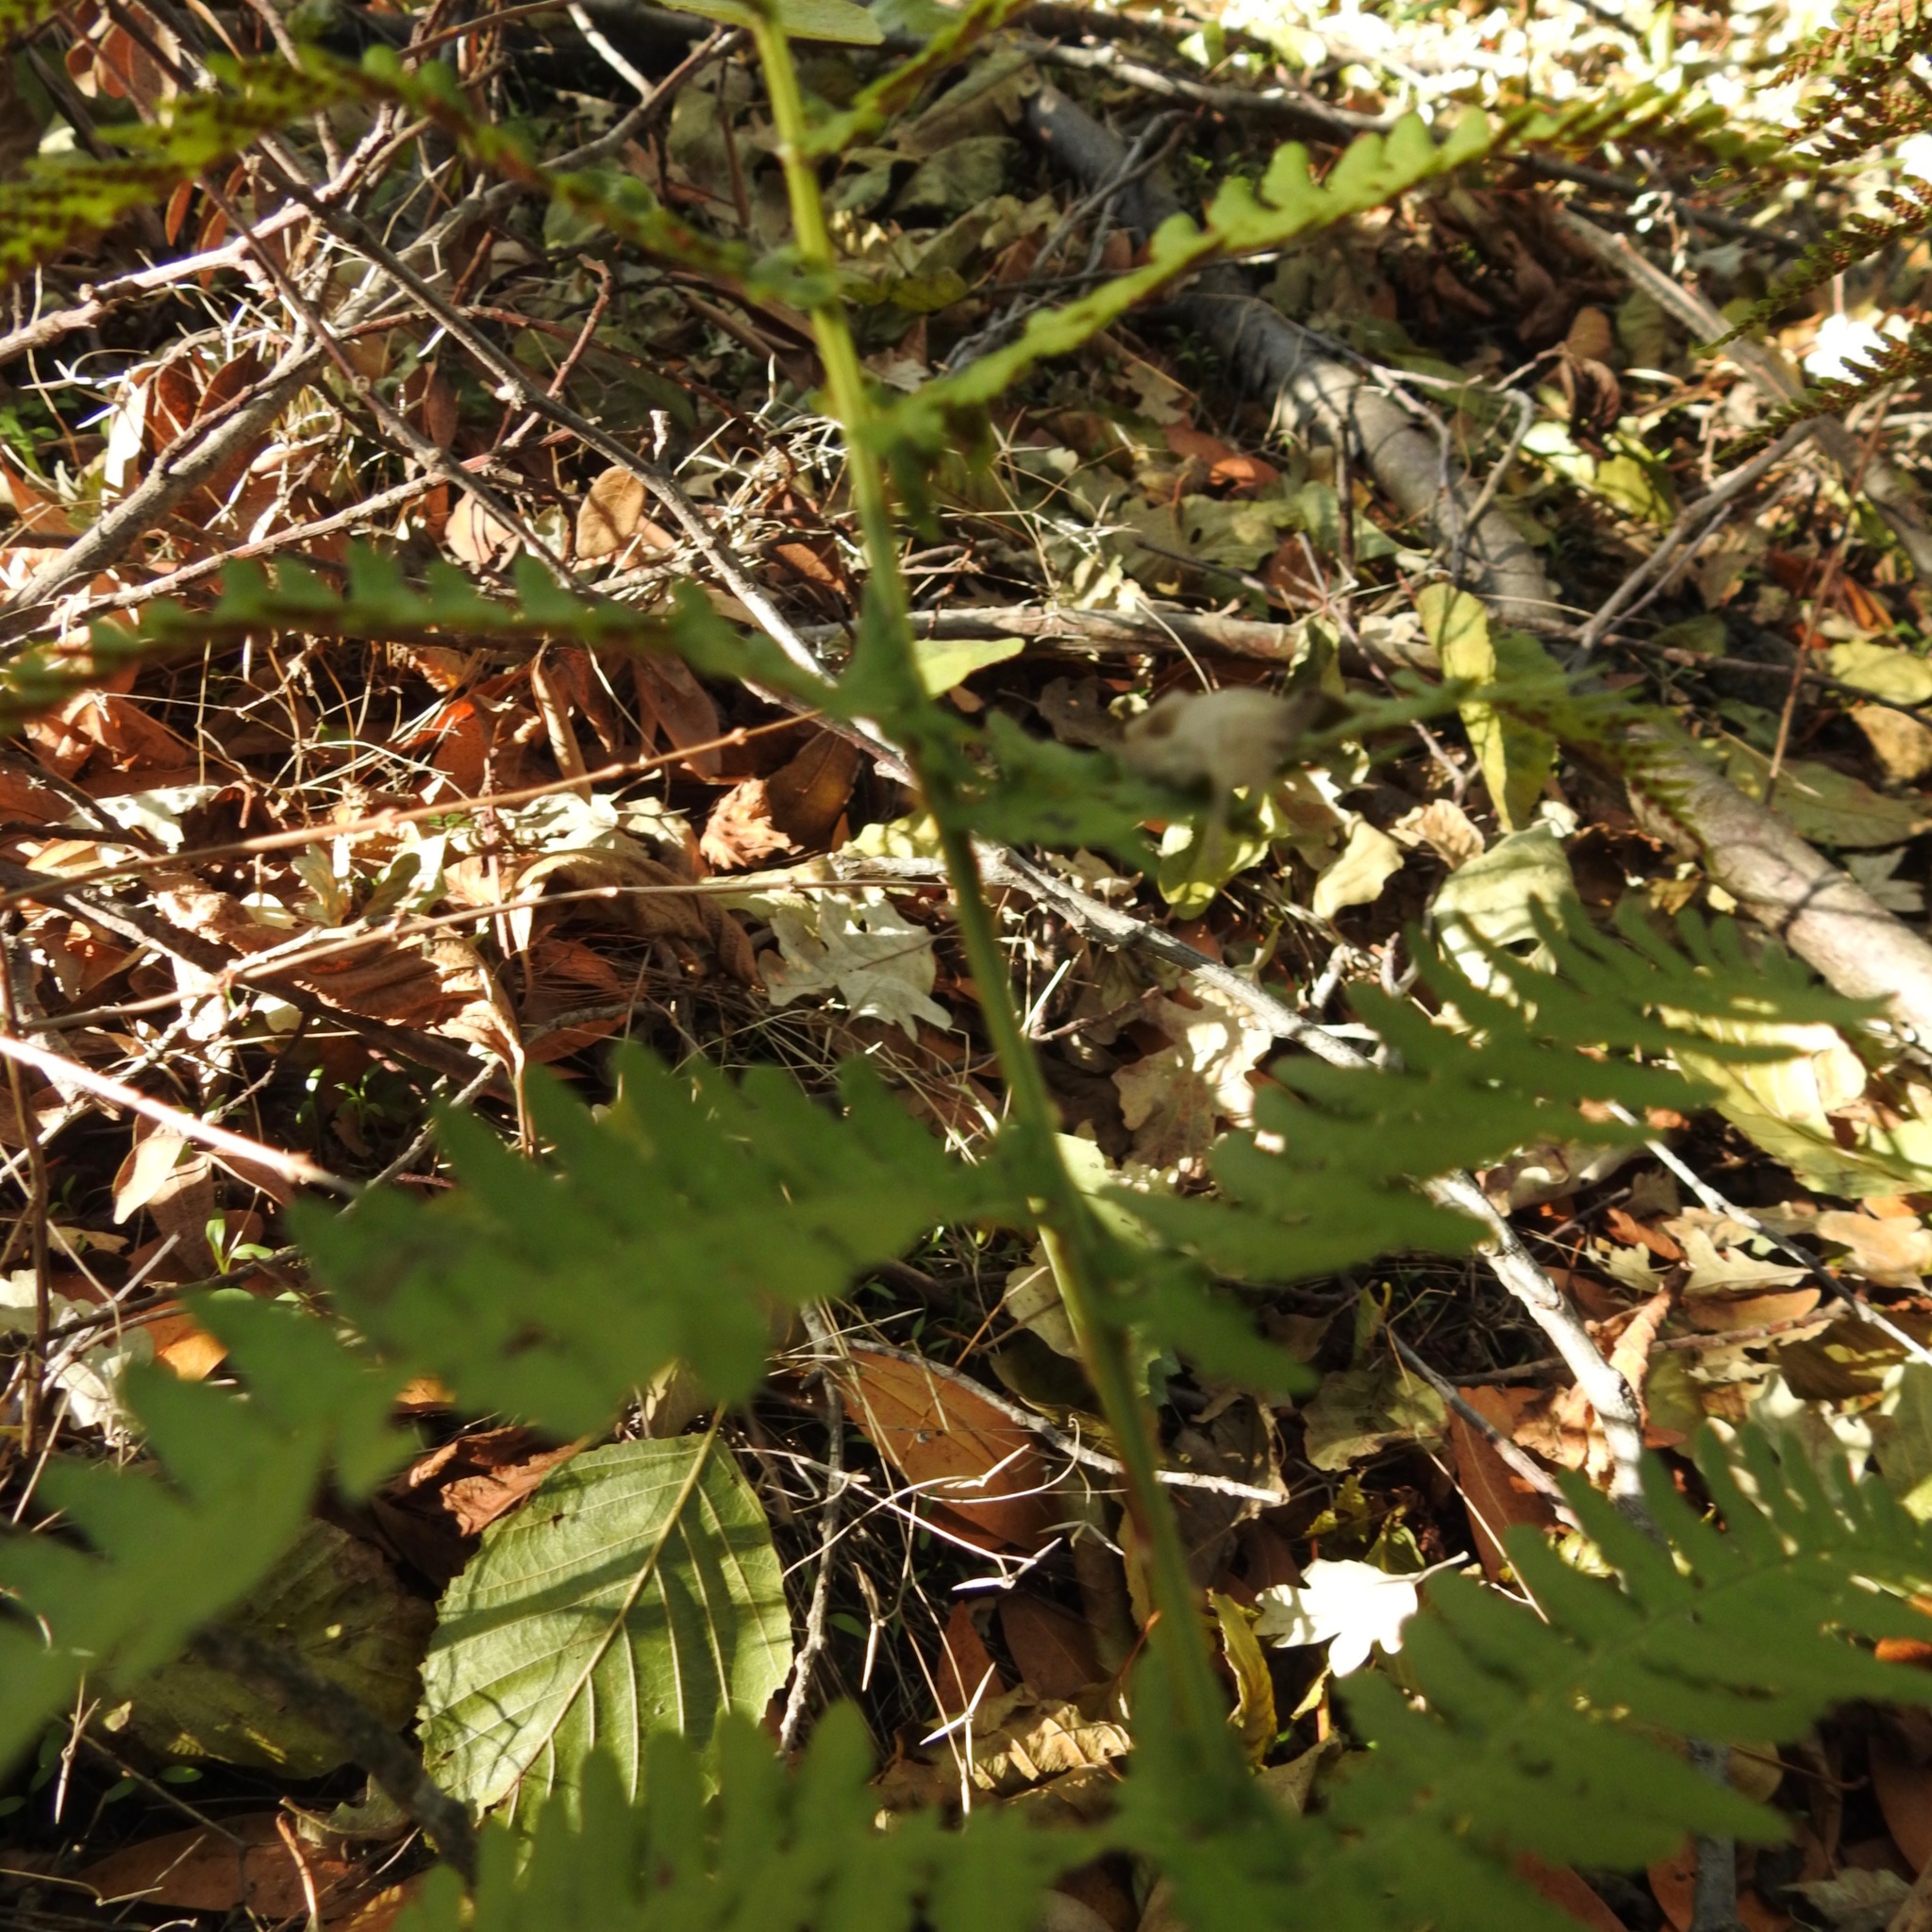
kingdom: Plantae
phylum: Tracheophyta
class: Polypodiopsida
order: Polypodiales
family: Dryopteridaceae
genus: Dryopteris
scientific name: Dryopteris arguta
